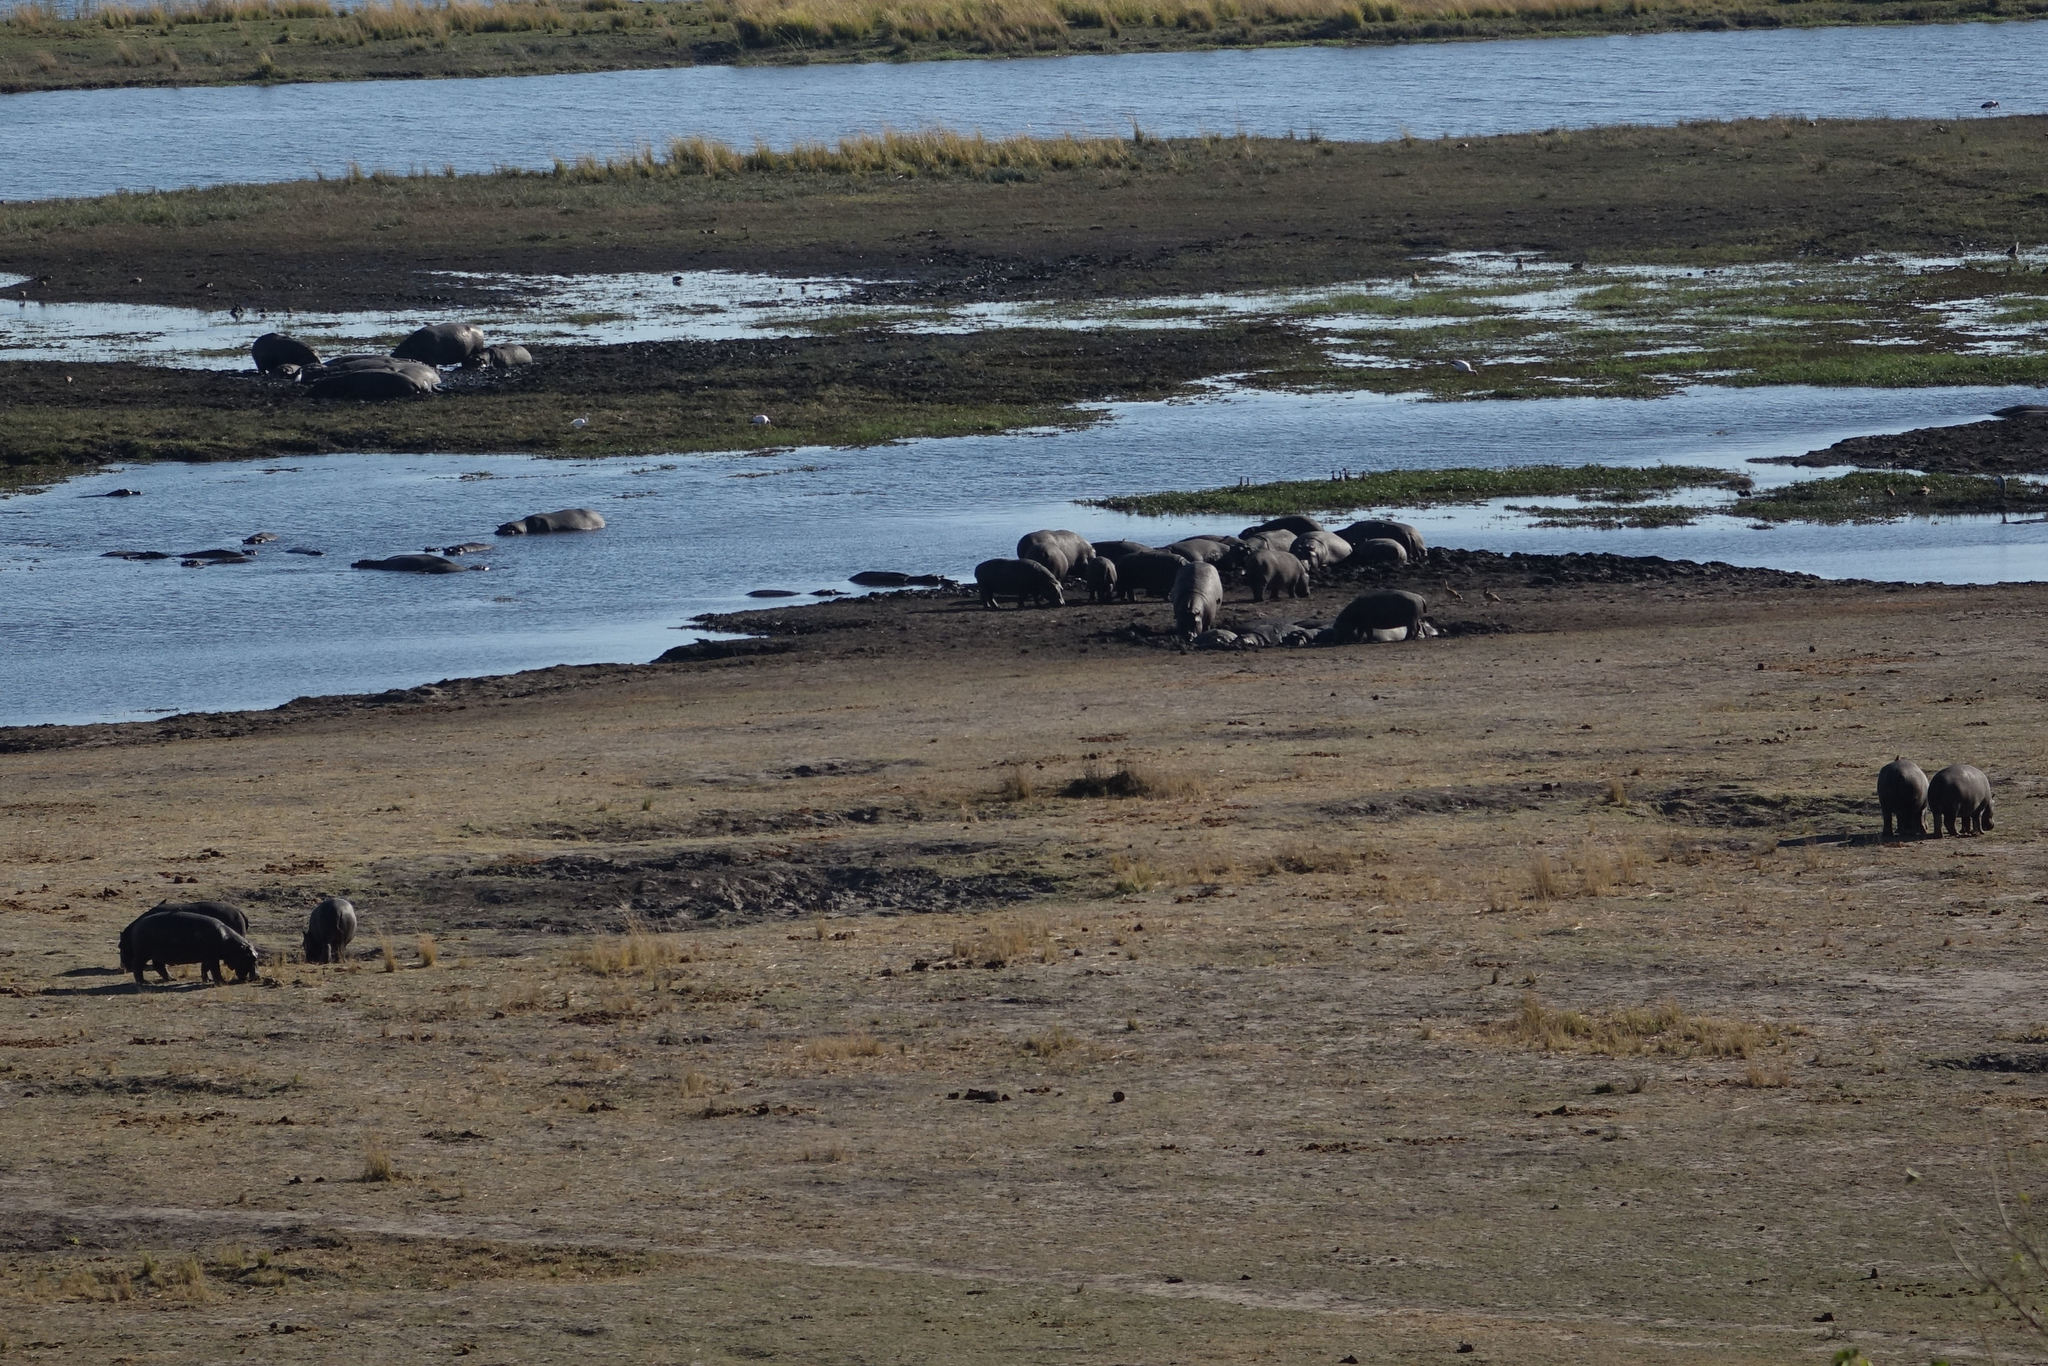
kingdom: Animalia
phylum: Chordata
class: Mammalia
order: Artiodactyla
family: Hippopotamidae
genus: Hippopotamus
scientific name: Hippopotamus amphibius
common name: Common hippopotamus
